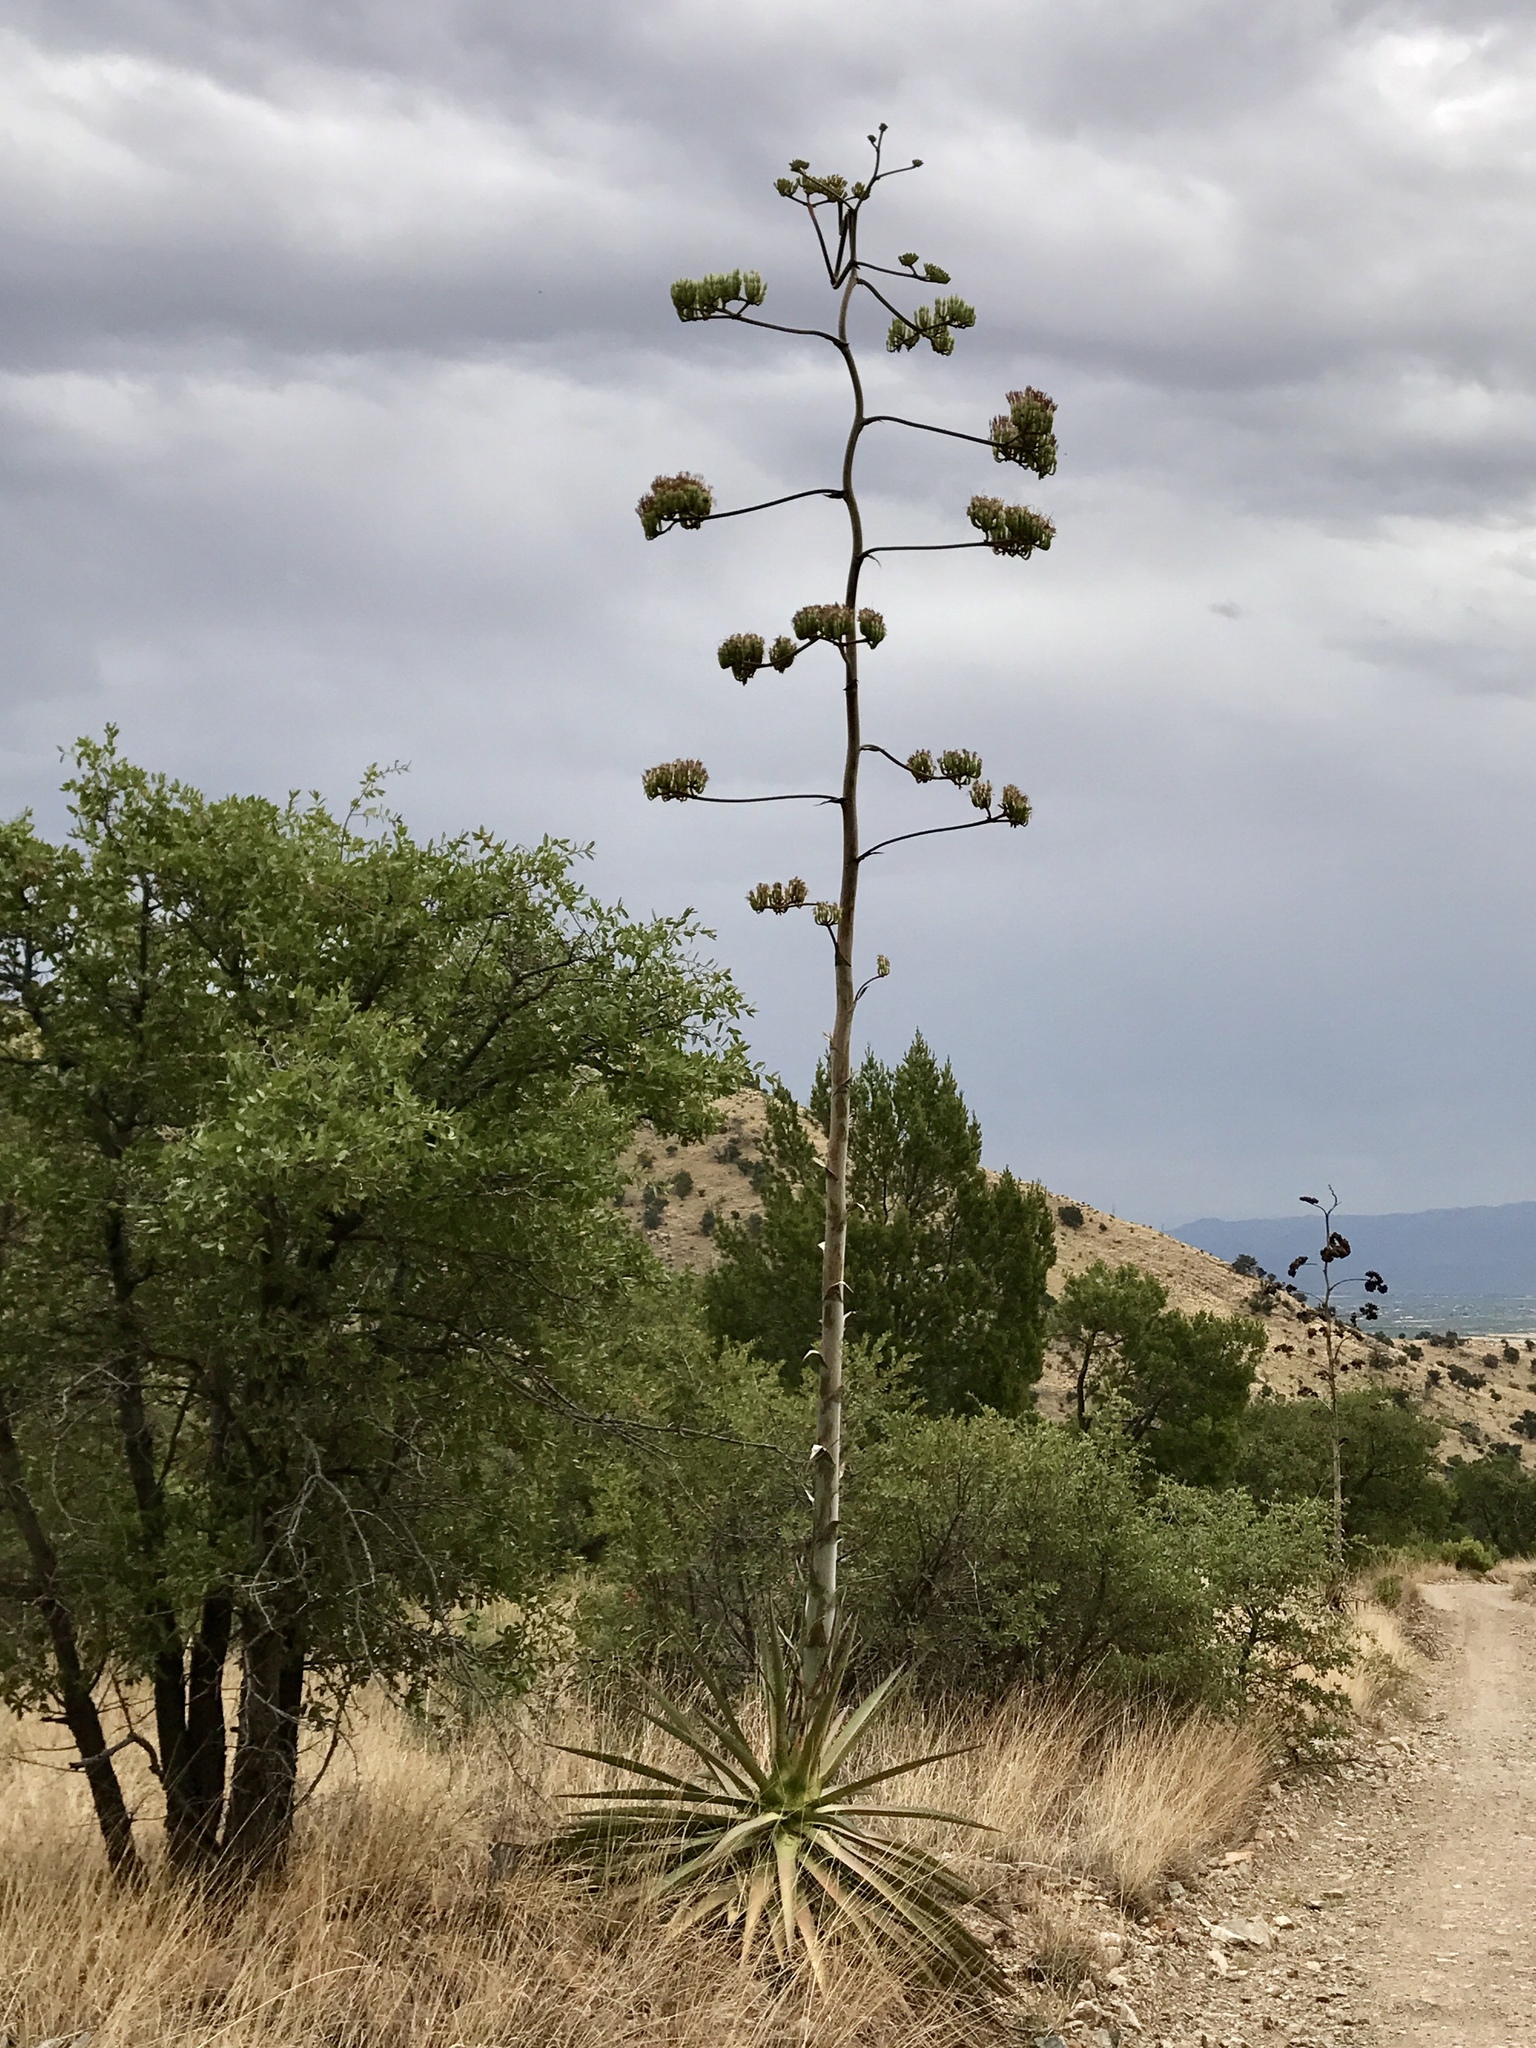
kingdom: Plantae
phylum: Tracheophyta
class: Liliopsida
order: Asparagales
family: Asparagaceae
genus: Agave
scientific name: Agave palmeri
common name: Palmer agave
